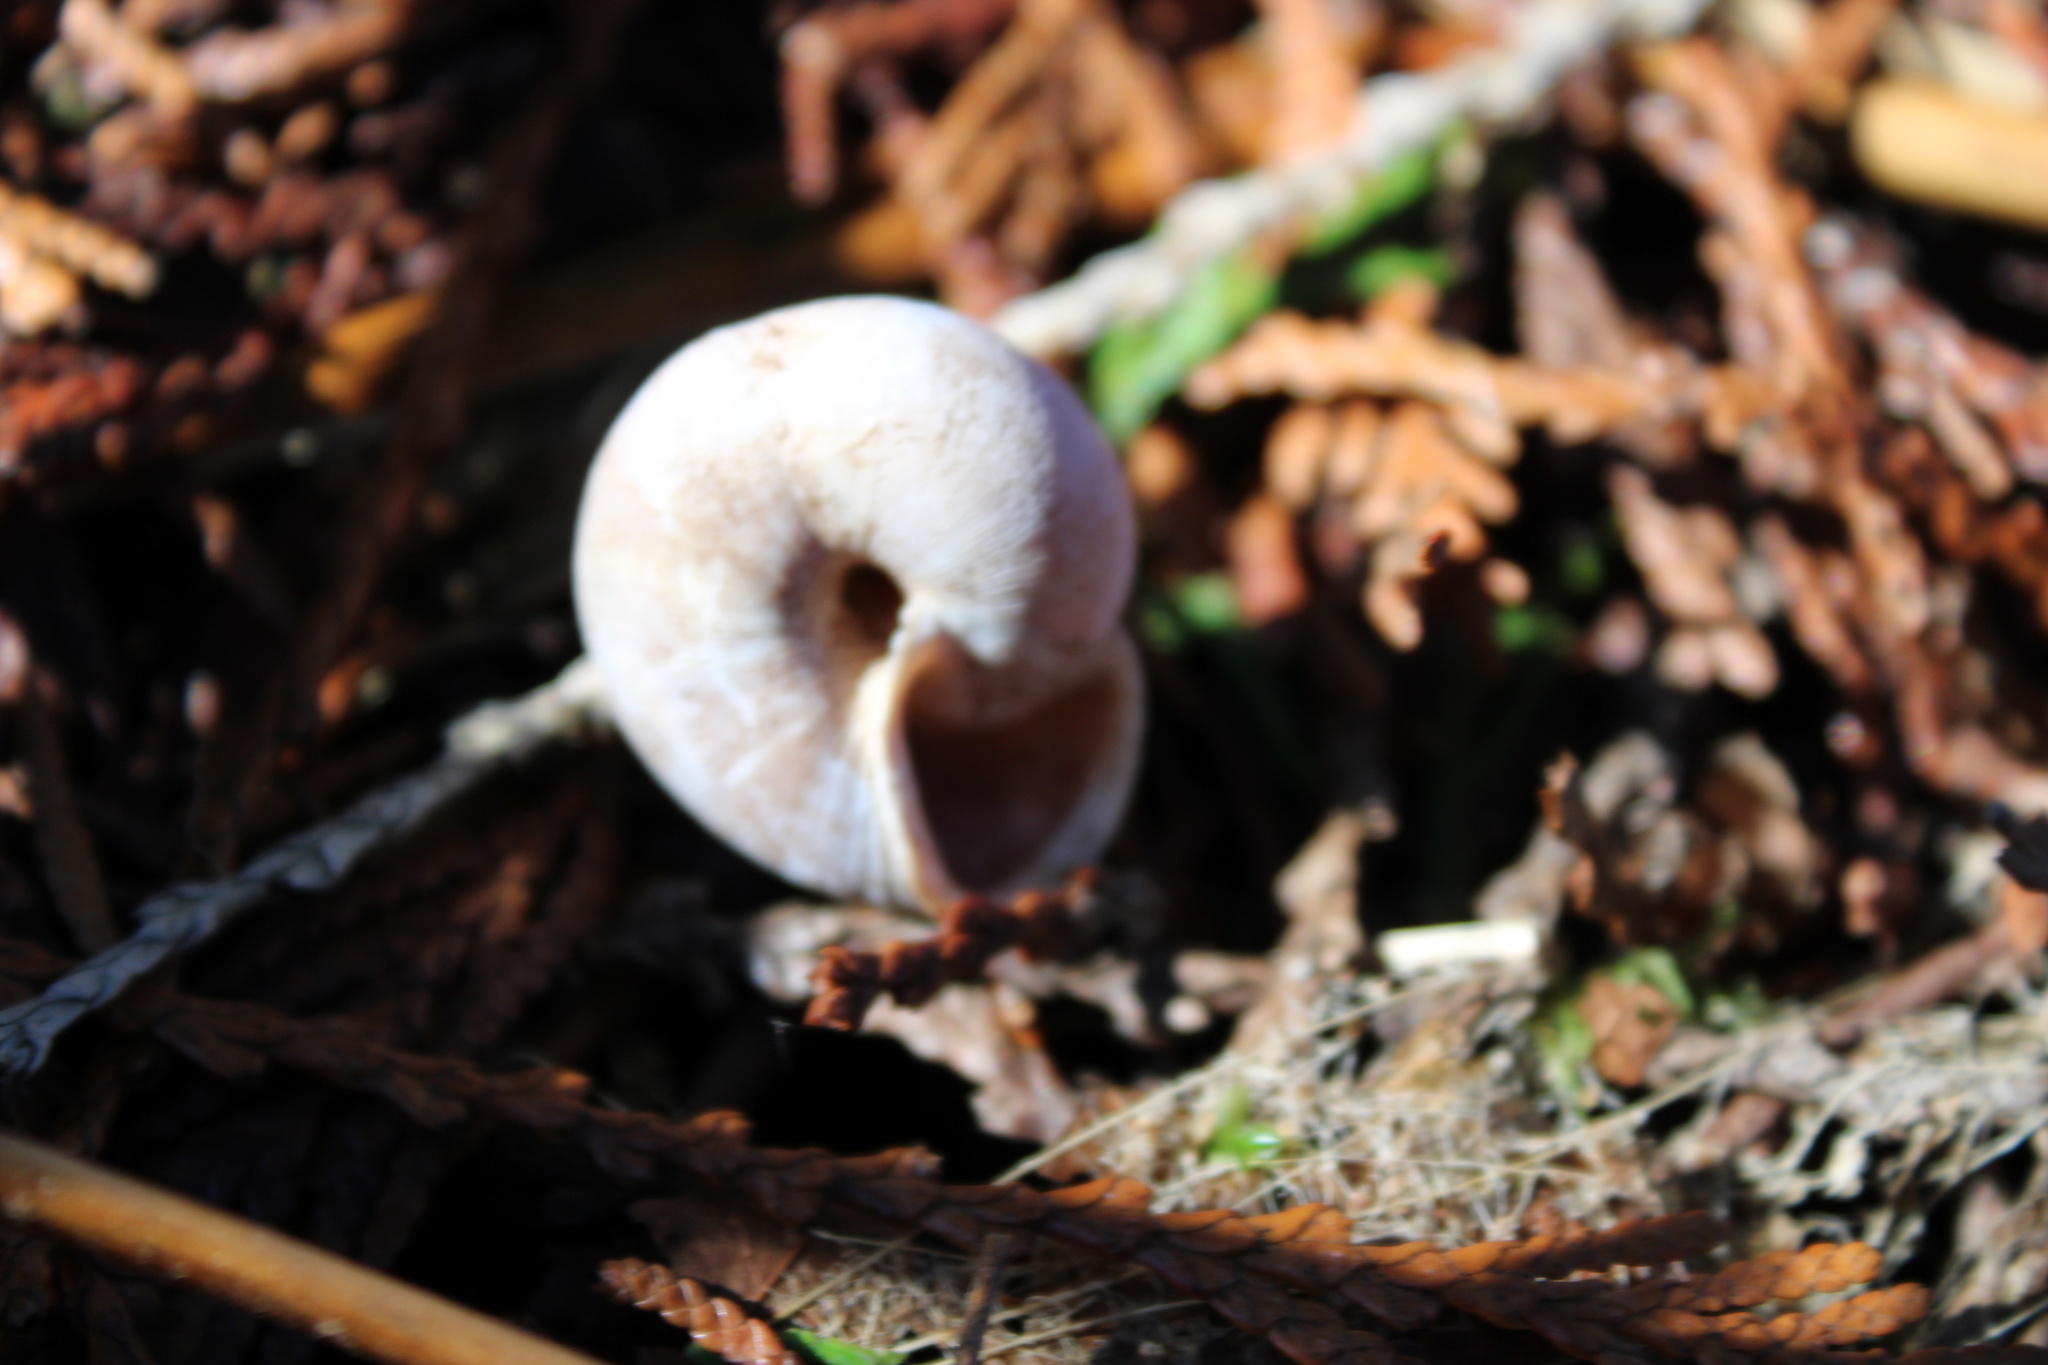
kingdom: Animalia
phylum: Mollusca
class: Gastropoda
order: Stylommatophora
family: Polygyridae
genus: Allogona
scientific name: Allogona townsendiana
